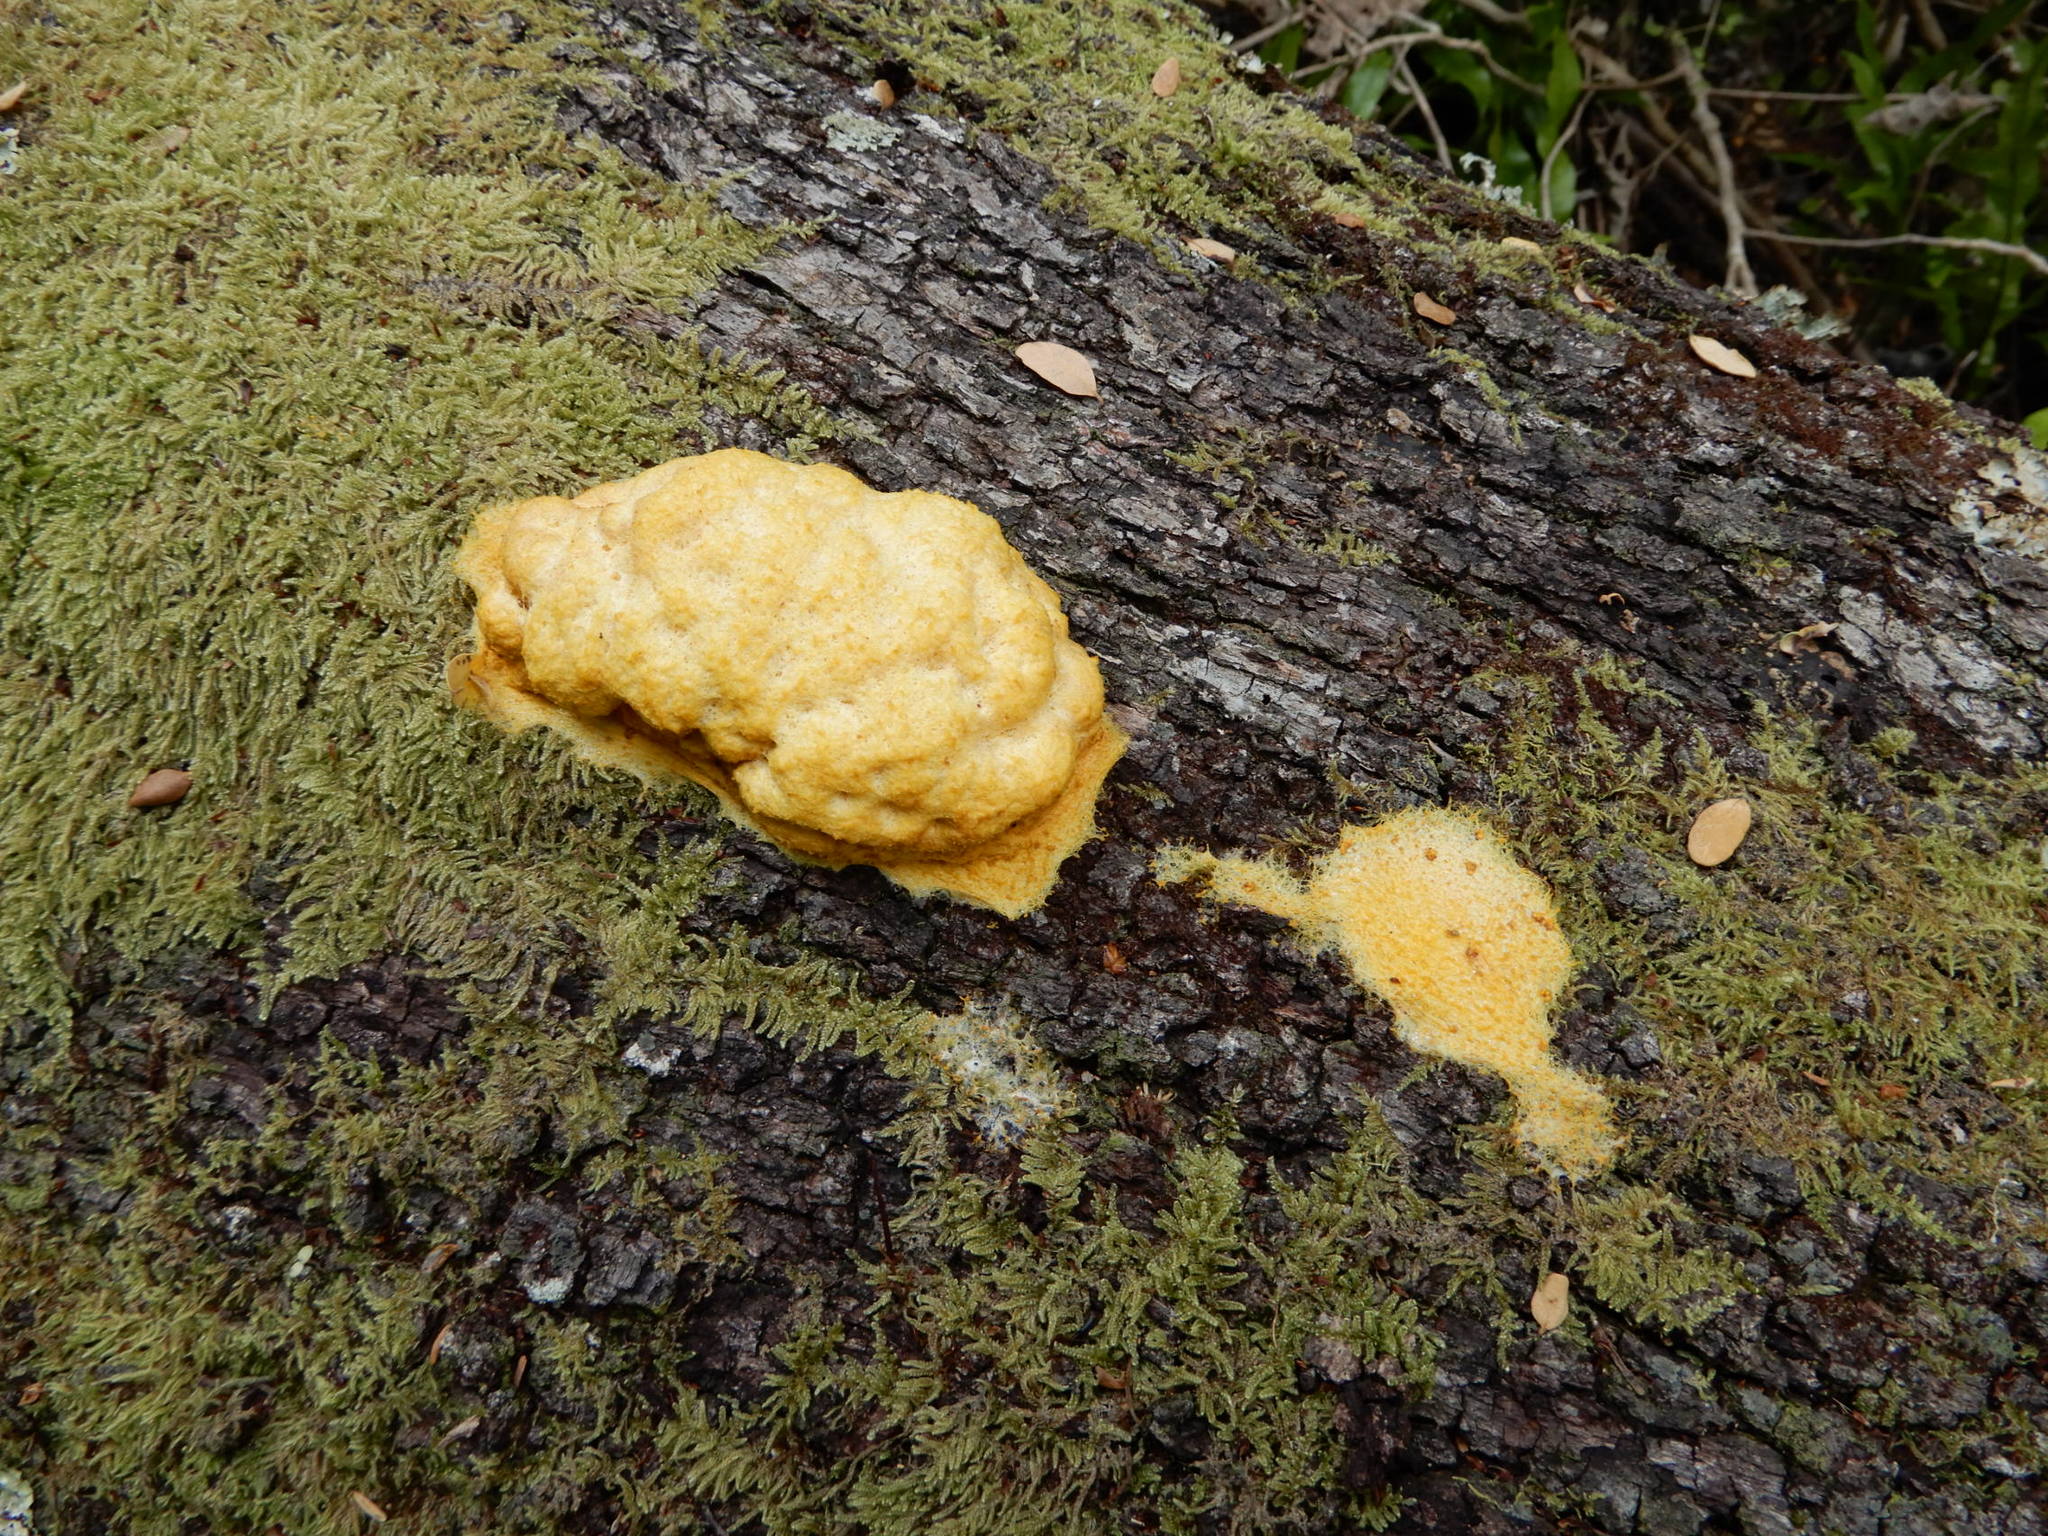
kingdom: Protozoa
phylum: Mycetozoa
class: Myxomycetes
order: Physarales
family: Physaraceae
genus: Fuligo
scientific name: Fuligo septica
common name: Dog vomit slime mold
